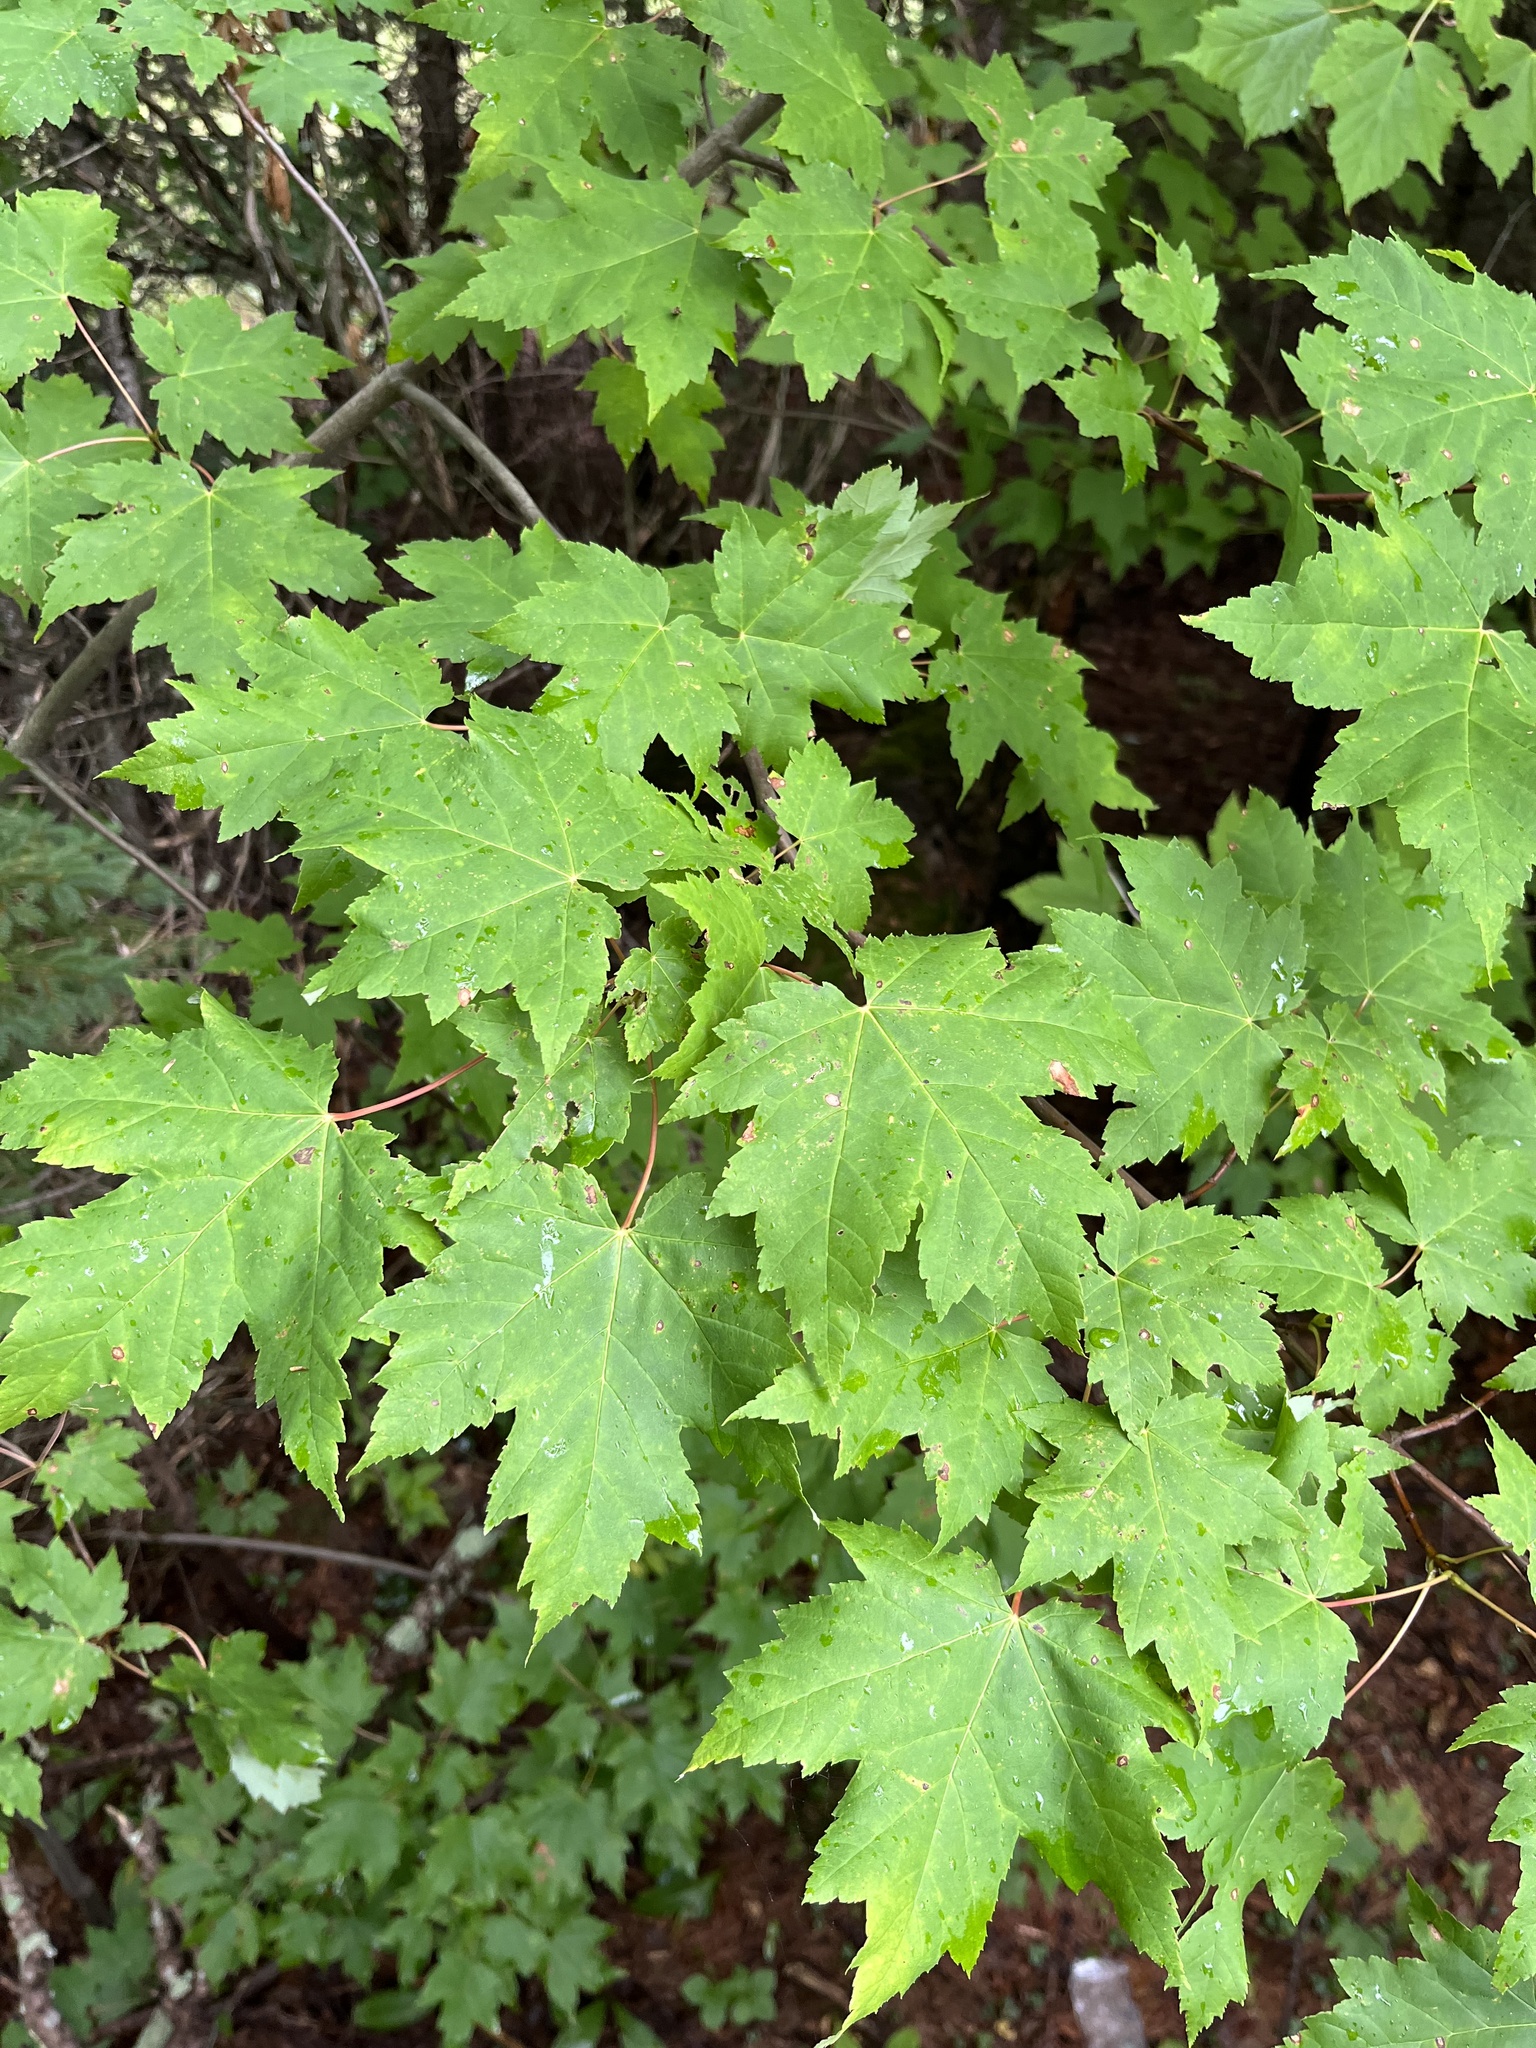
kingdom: Plantae
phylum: Tracheophyta
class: Magnoliopsida
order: Sapindales
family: Sapindaceae
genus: Acer
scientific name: Acer rubrum
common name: Red maple
